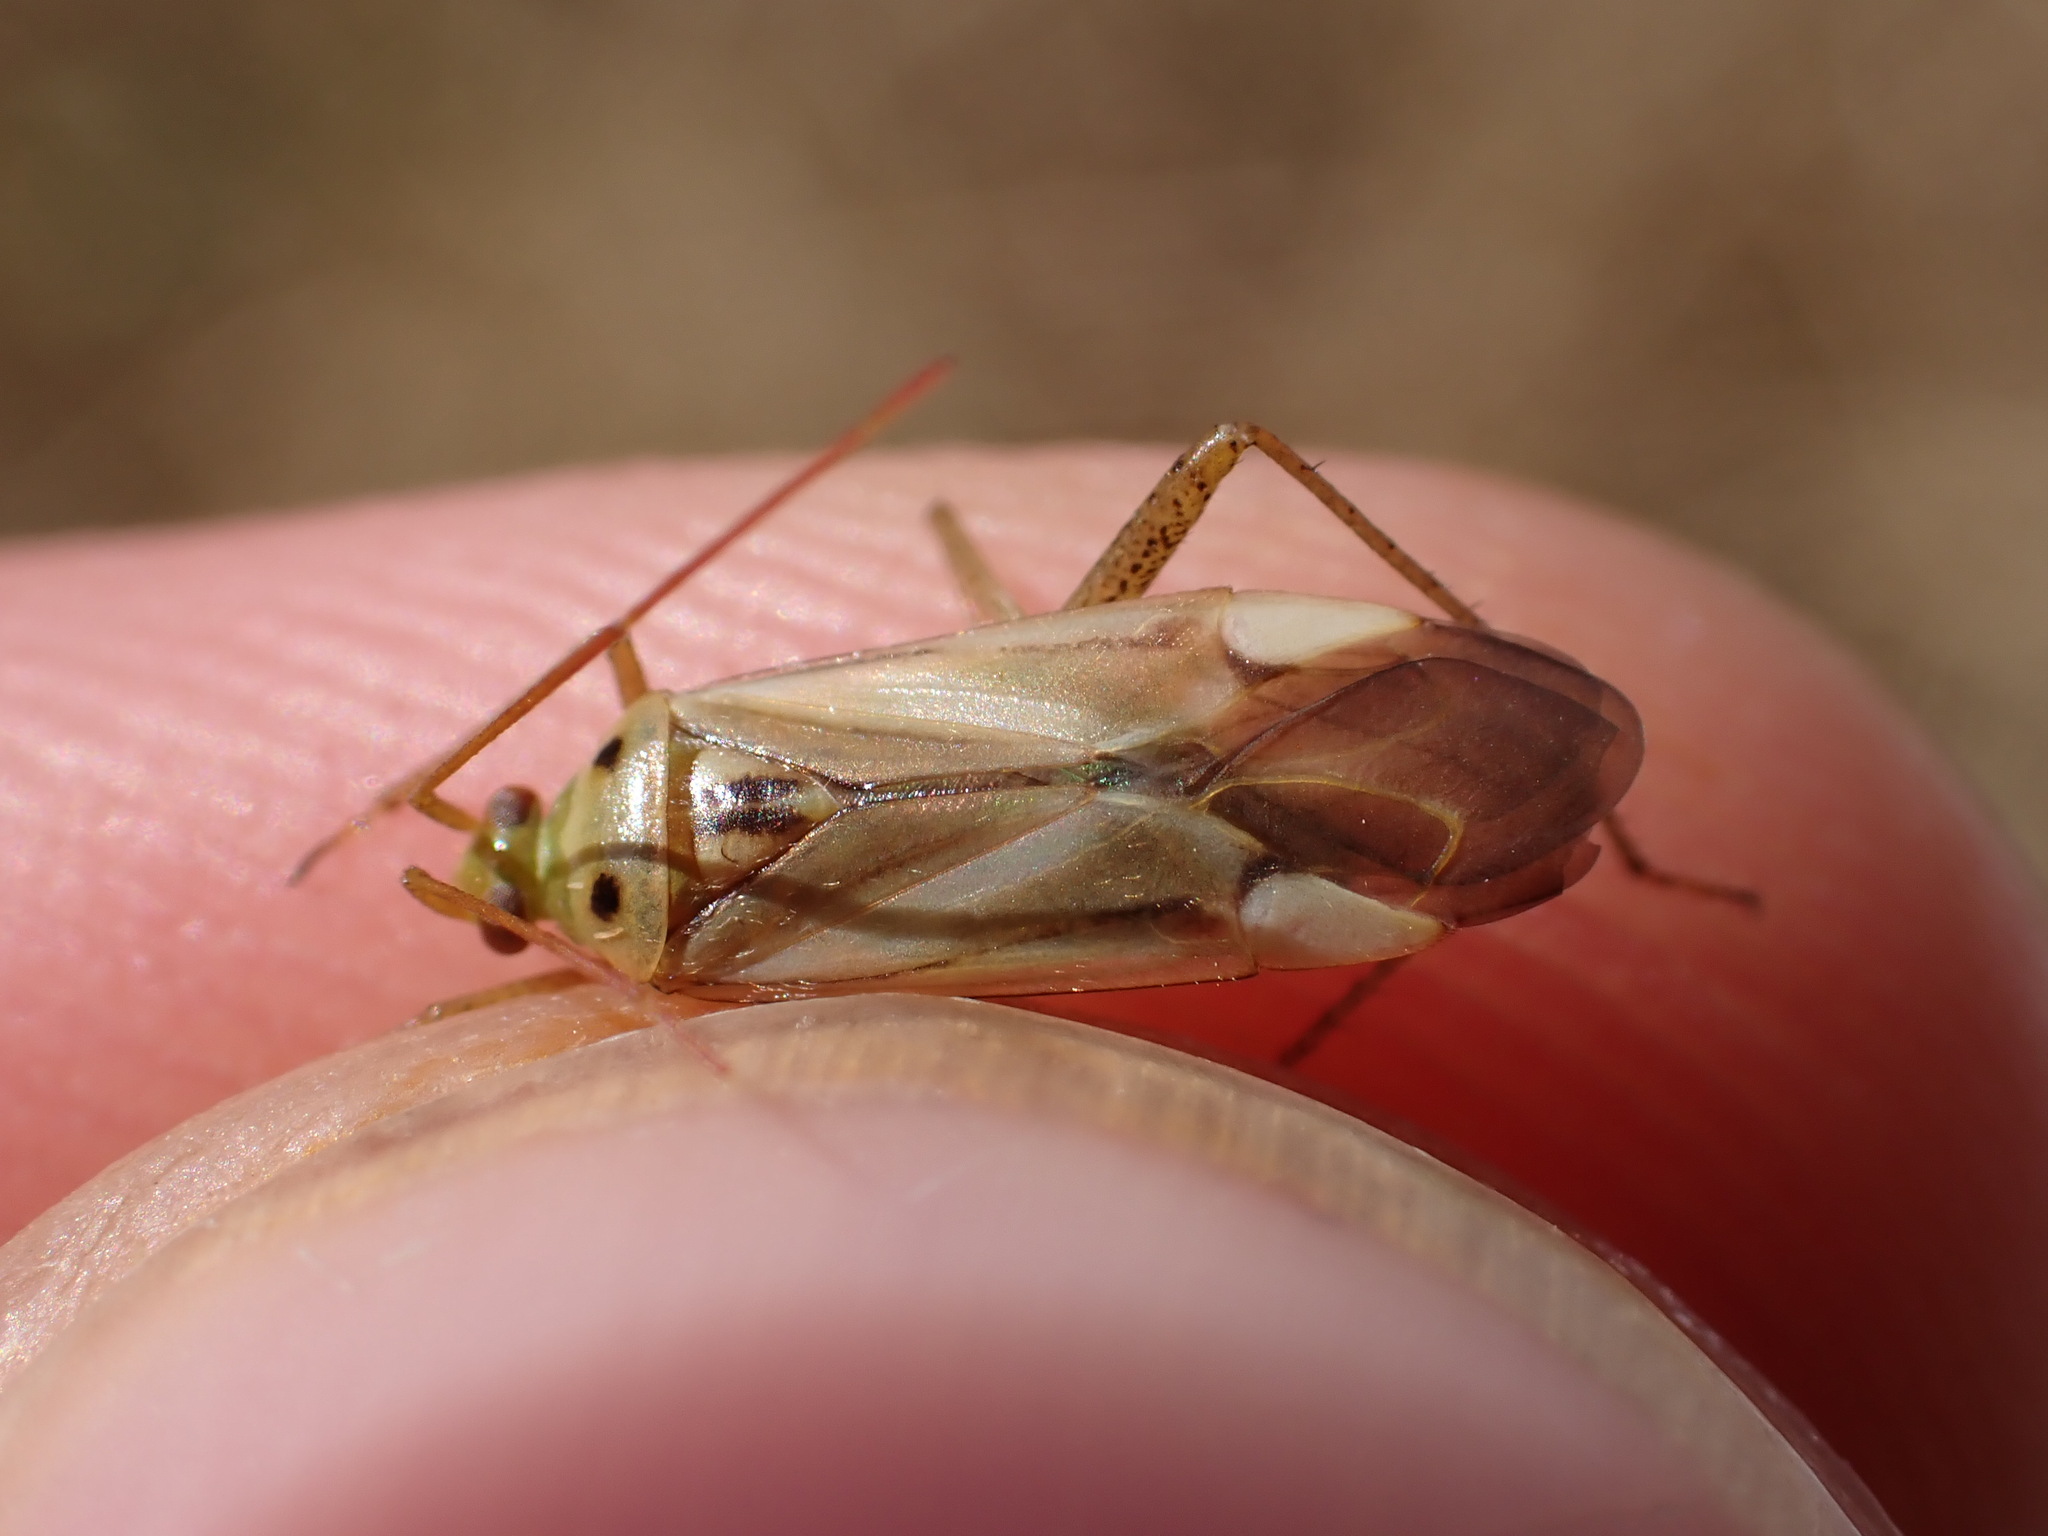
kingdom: Animalia
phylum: Arthropoda
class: Insecta
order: Hemiptera
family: Miridae
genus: Adelphocoris
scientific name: Adelphocoris lineolatus
